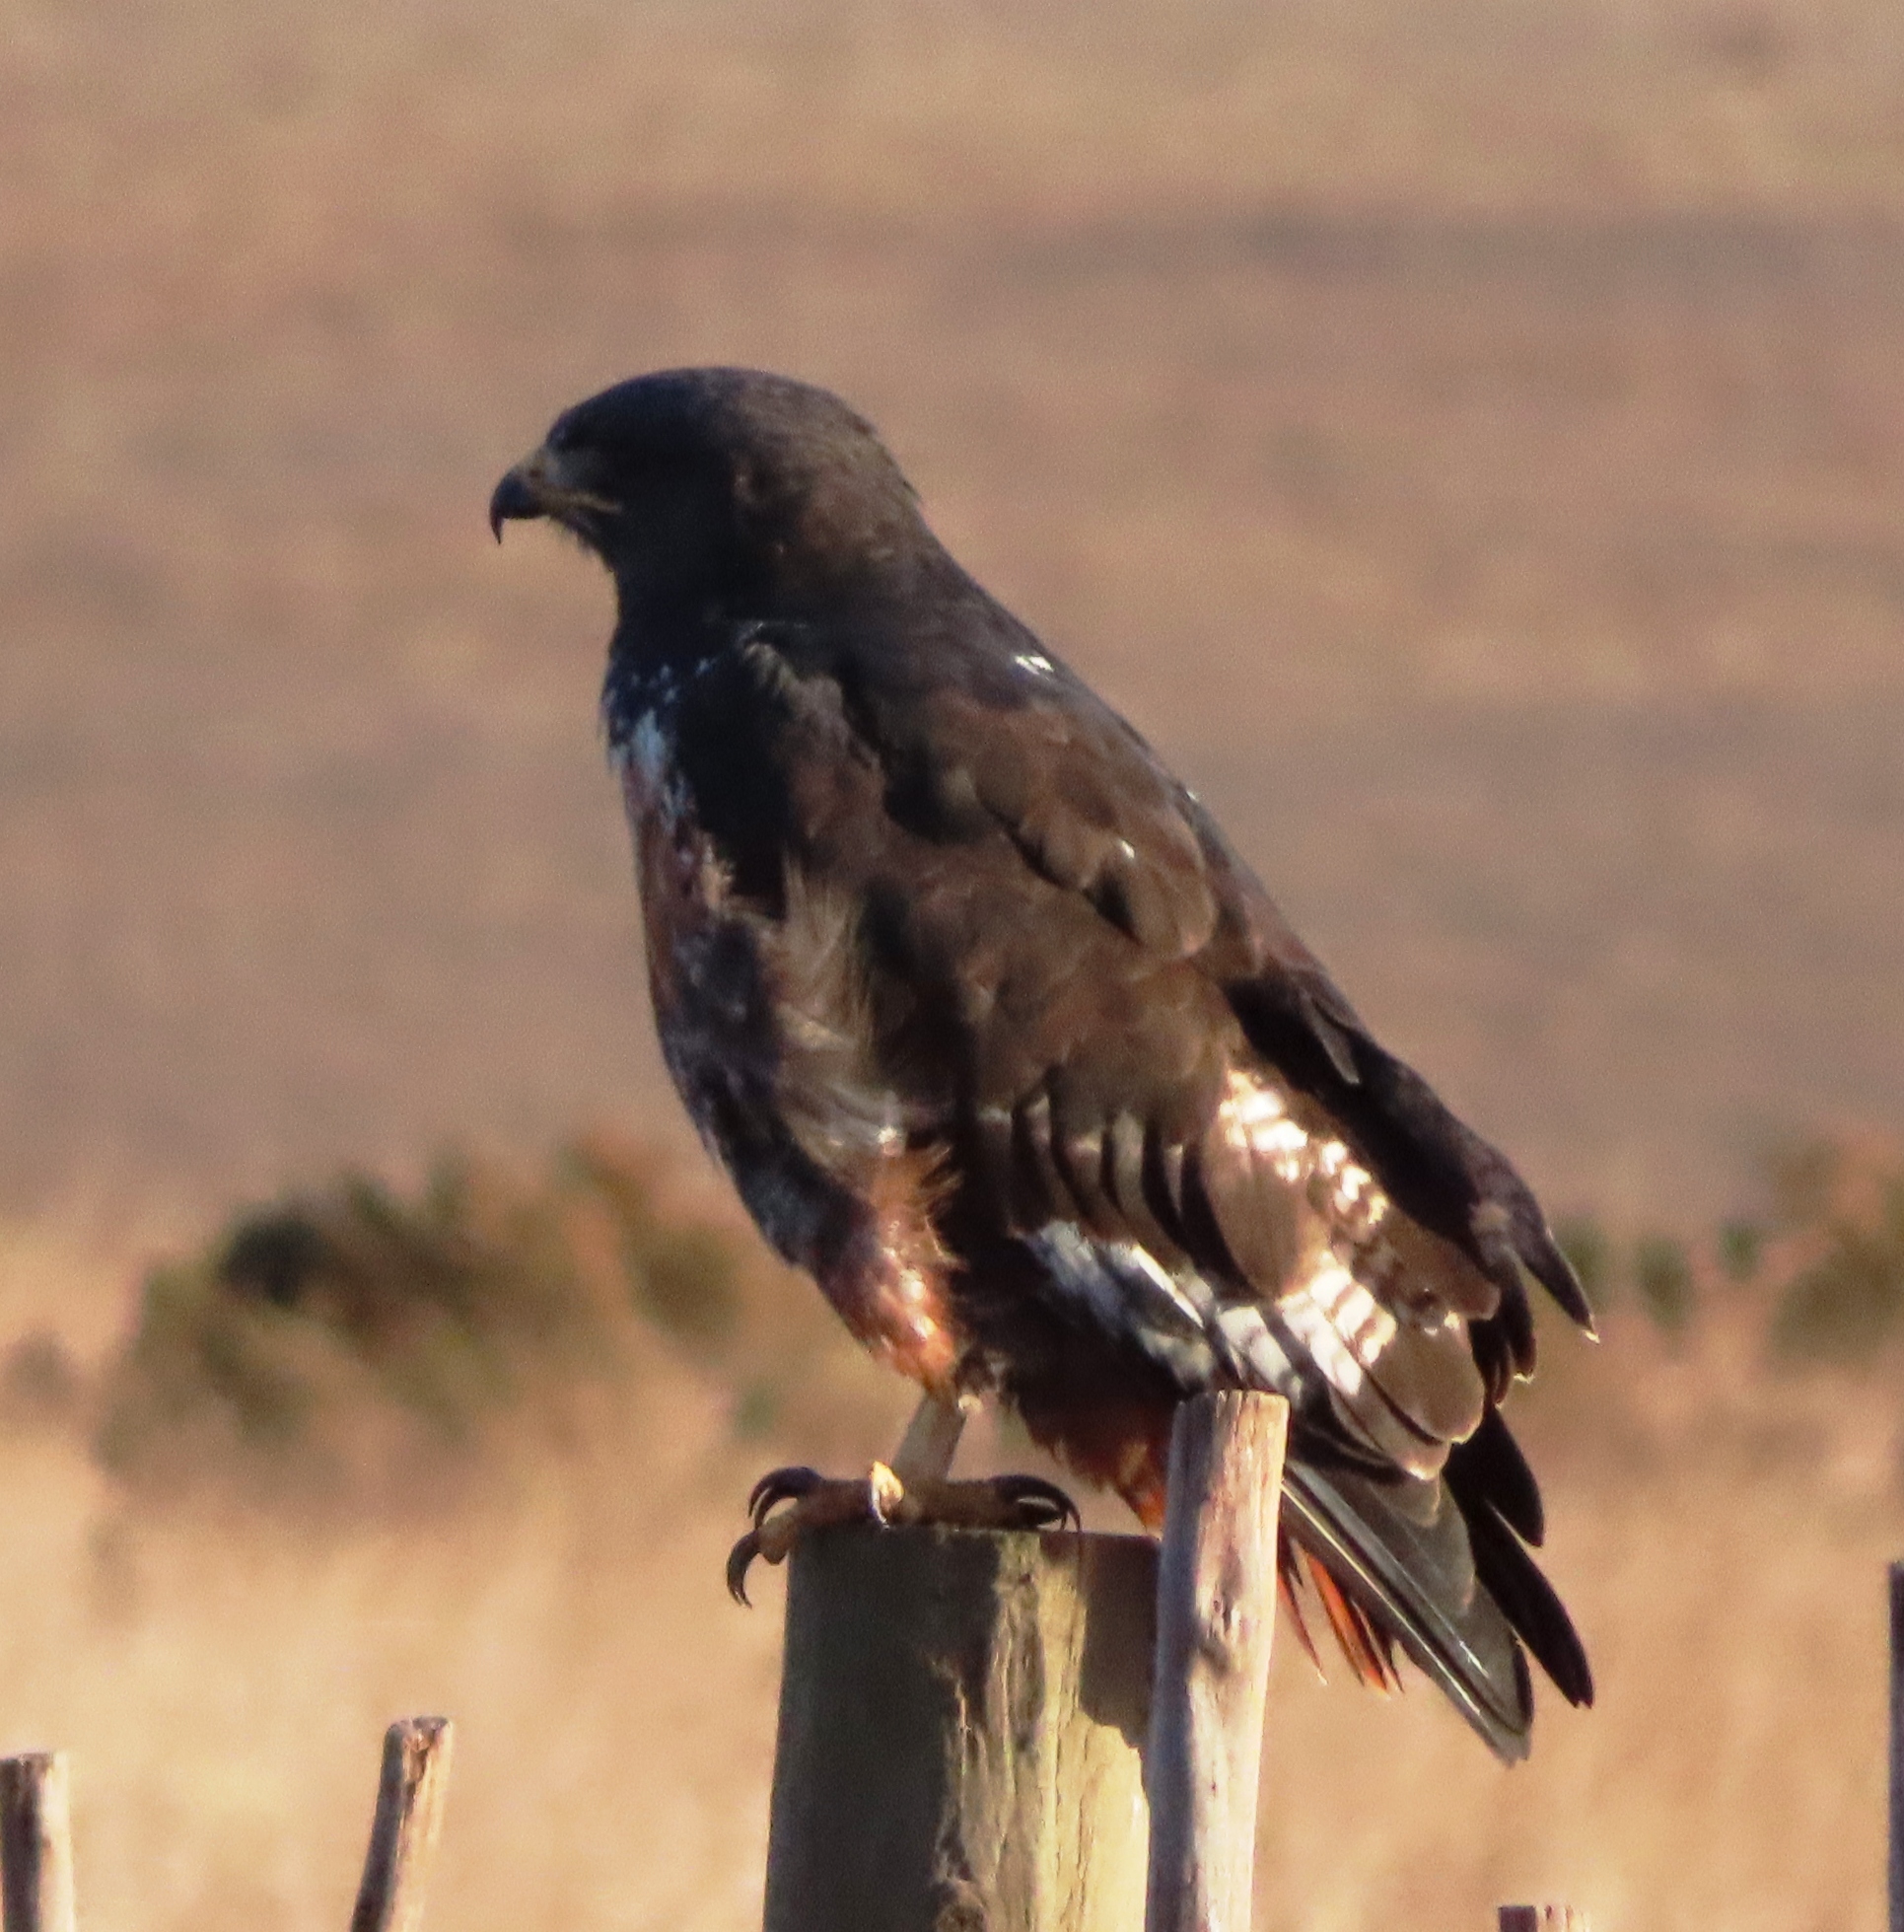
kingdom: Animalia
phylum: Chordata
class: Aves
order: Accipitriformes
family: Accipitridae
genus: Buteo
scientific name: Buteo rufofuscus
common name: Jackal buzzard
